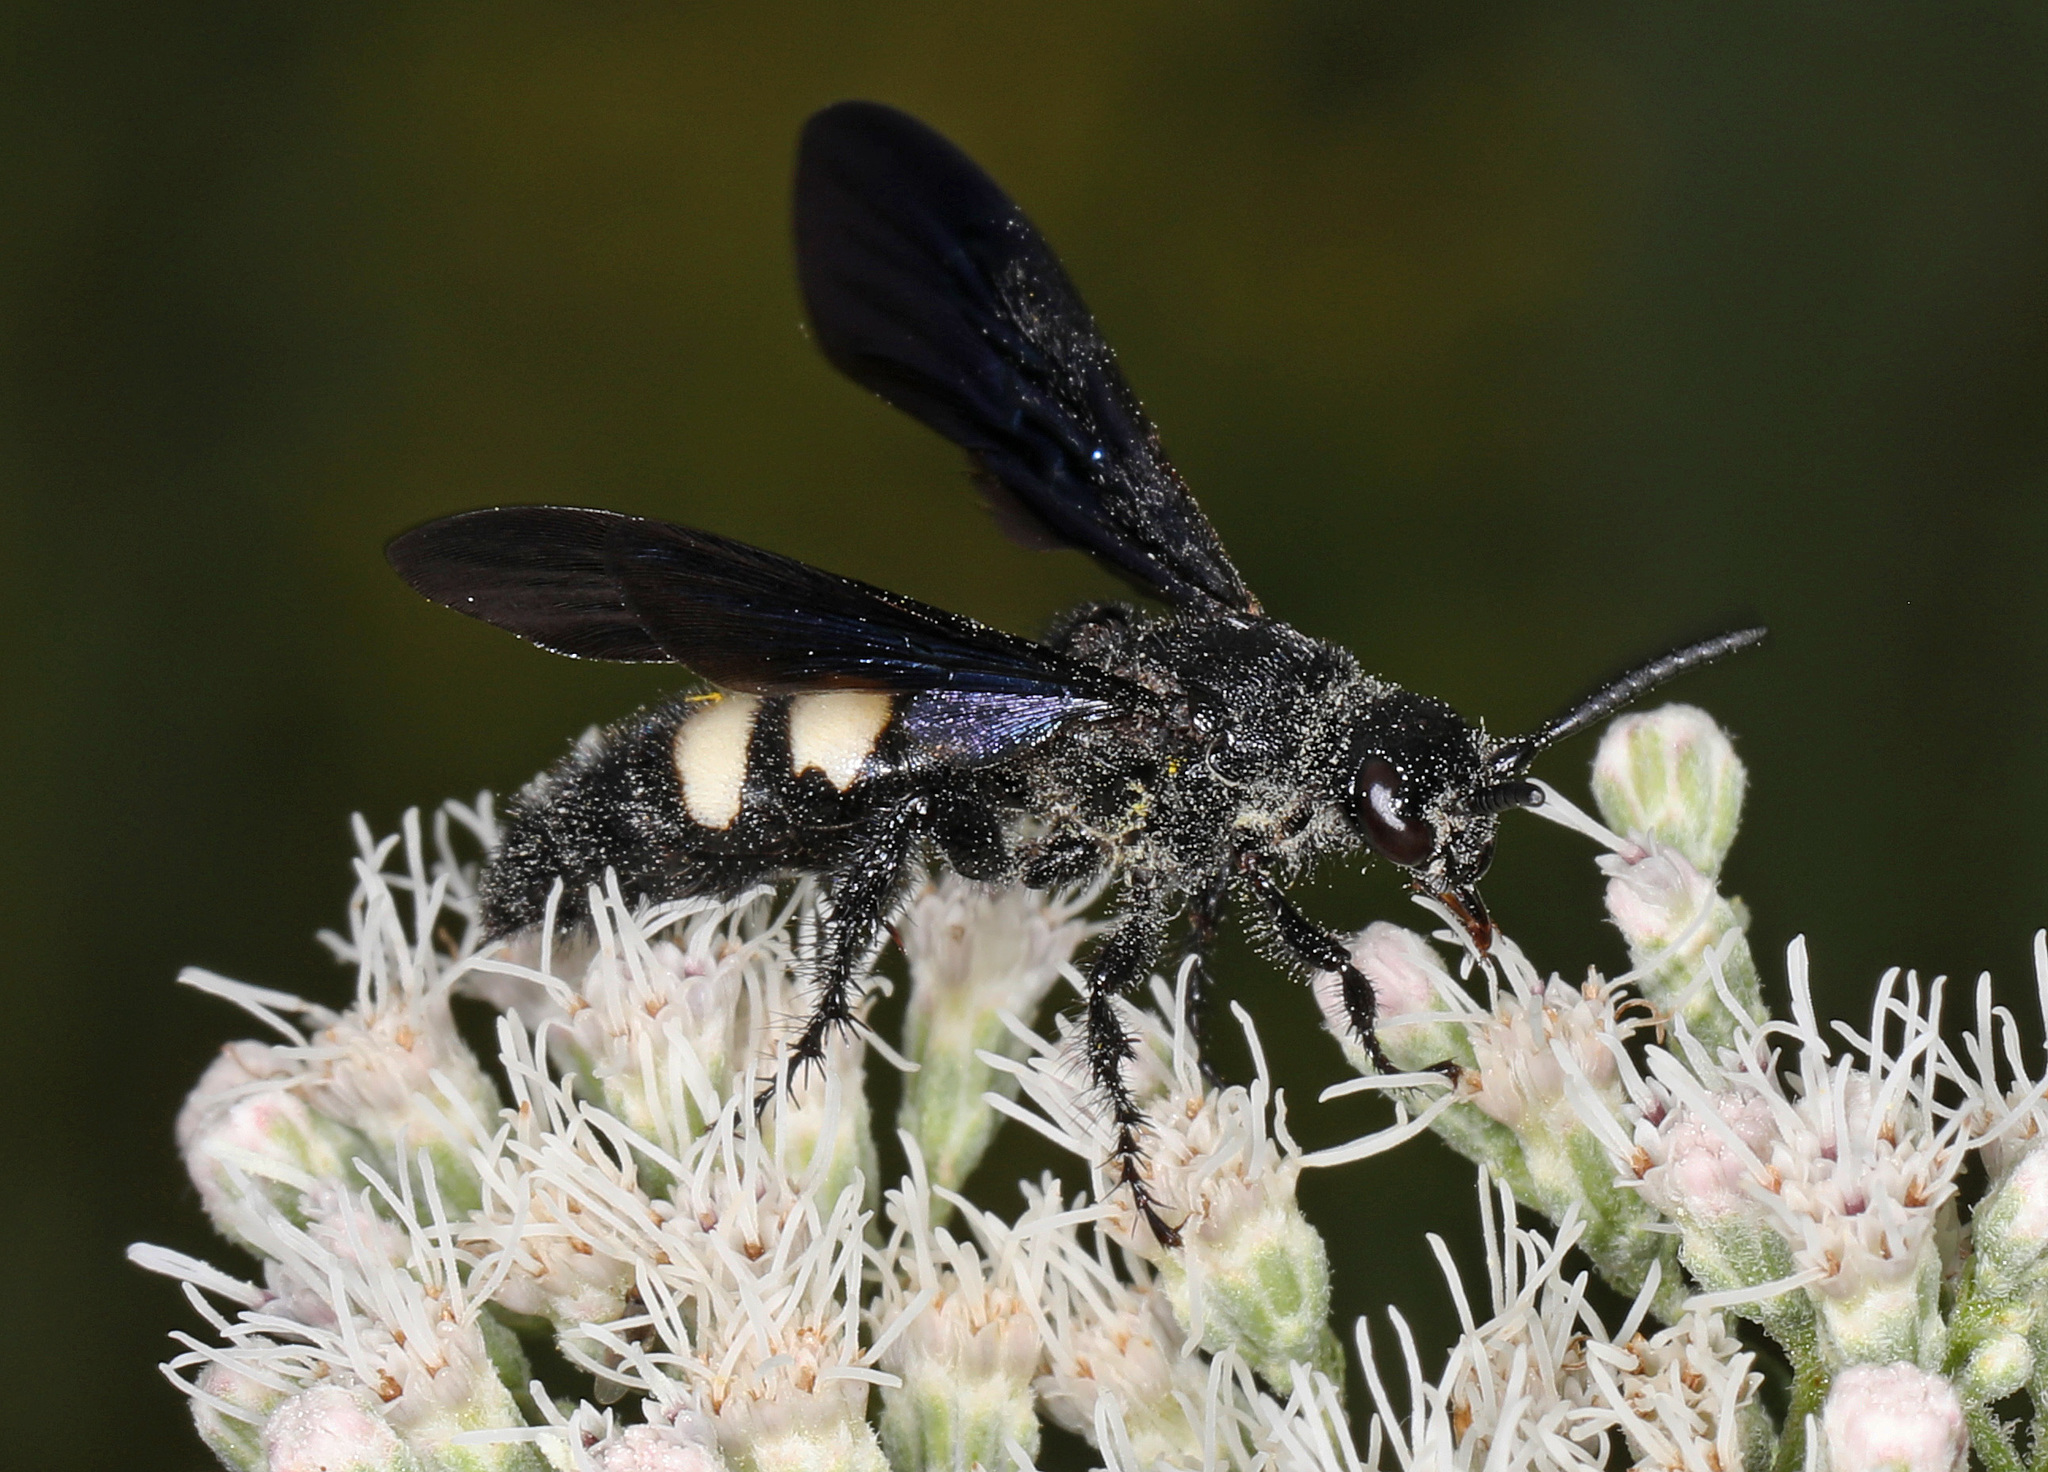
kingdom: Animalia
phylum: Arthropoda
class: Insecta
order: Hymenoptera
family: Scoliidae
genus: Scolia
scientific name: Scolia bicincta
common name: Double-banded scoliid wasp
